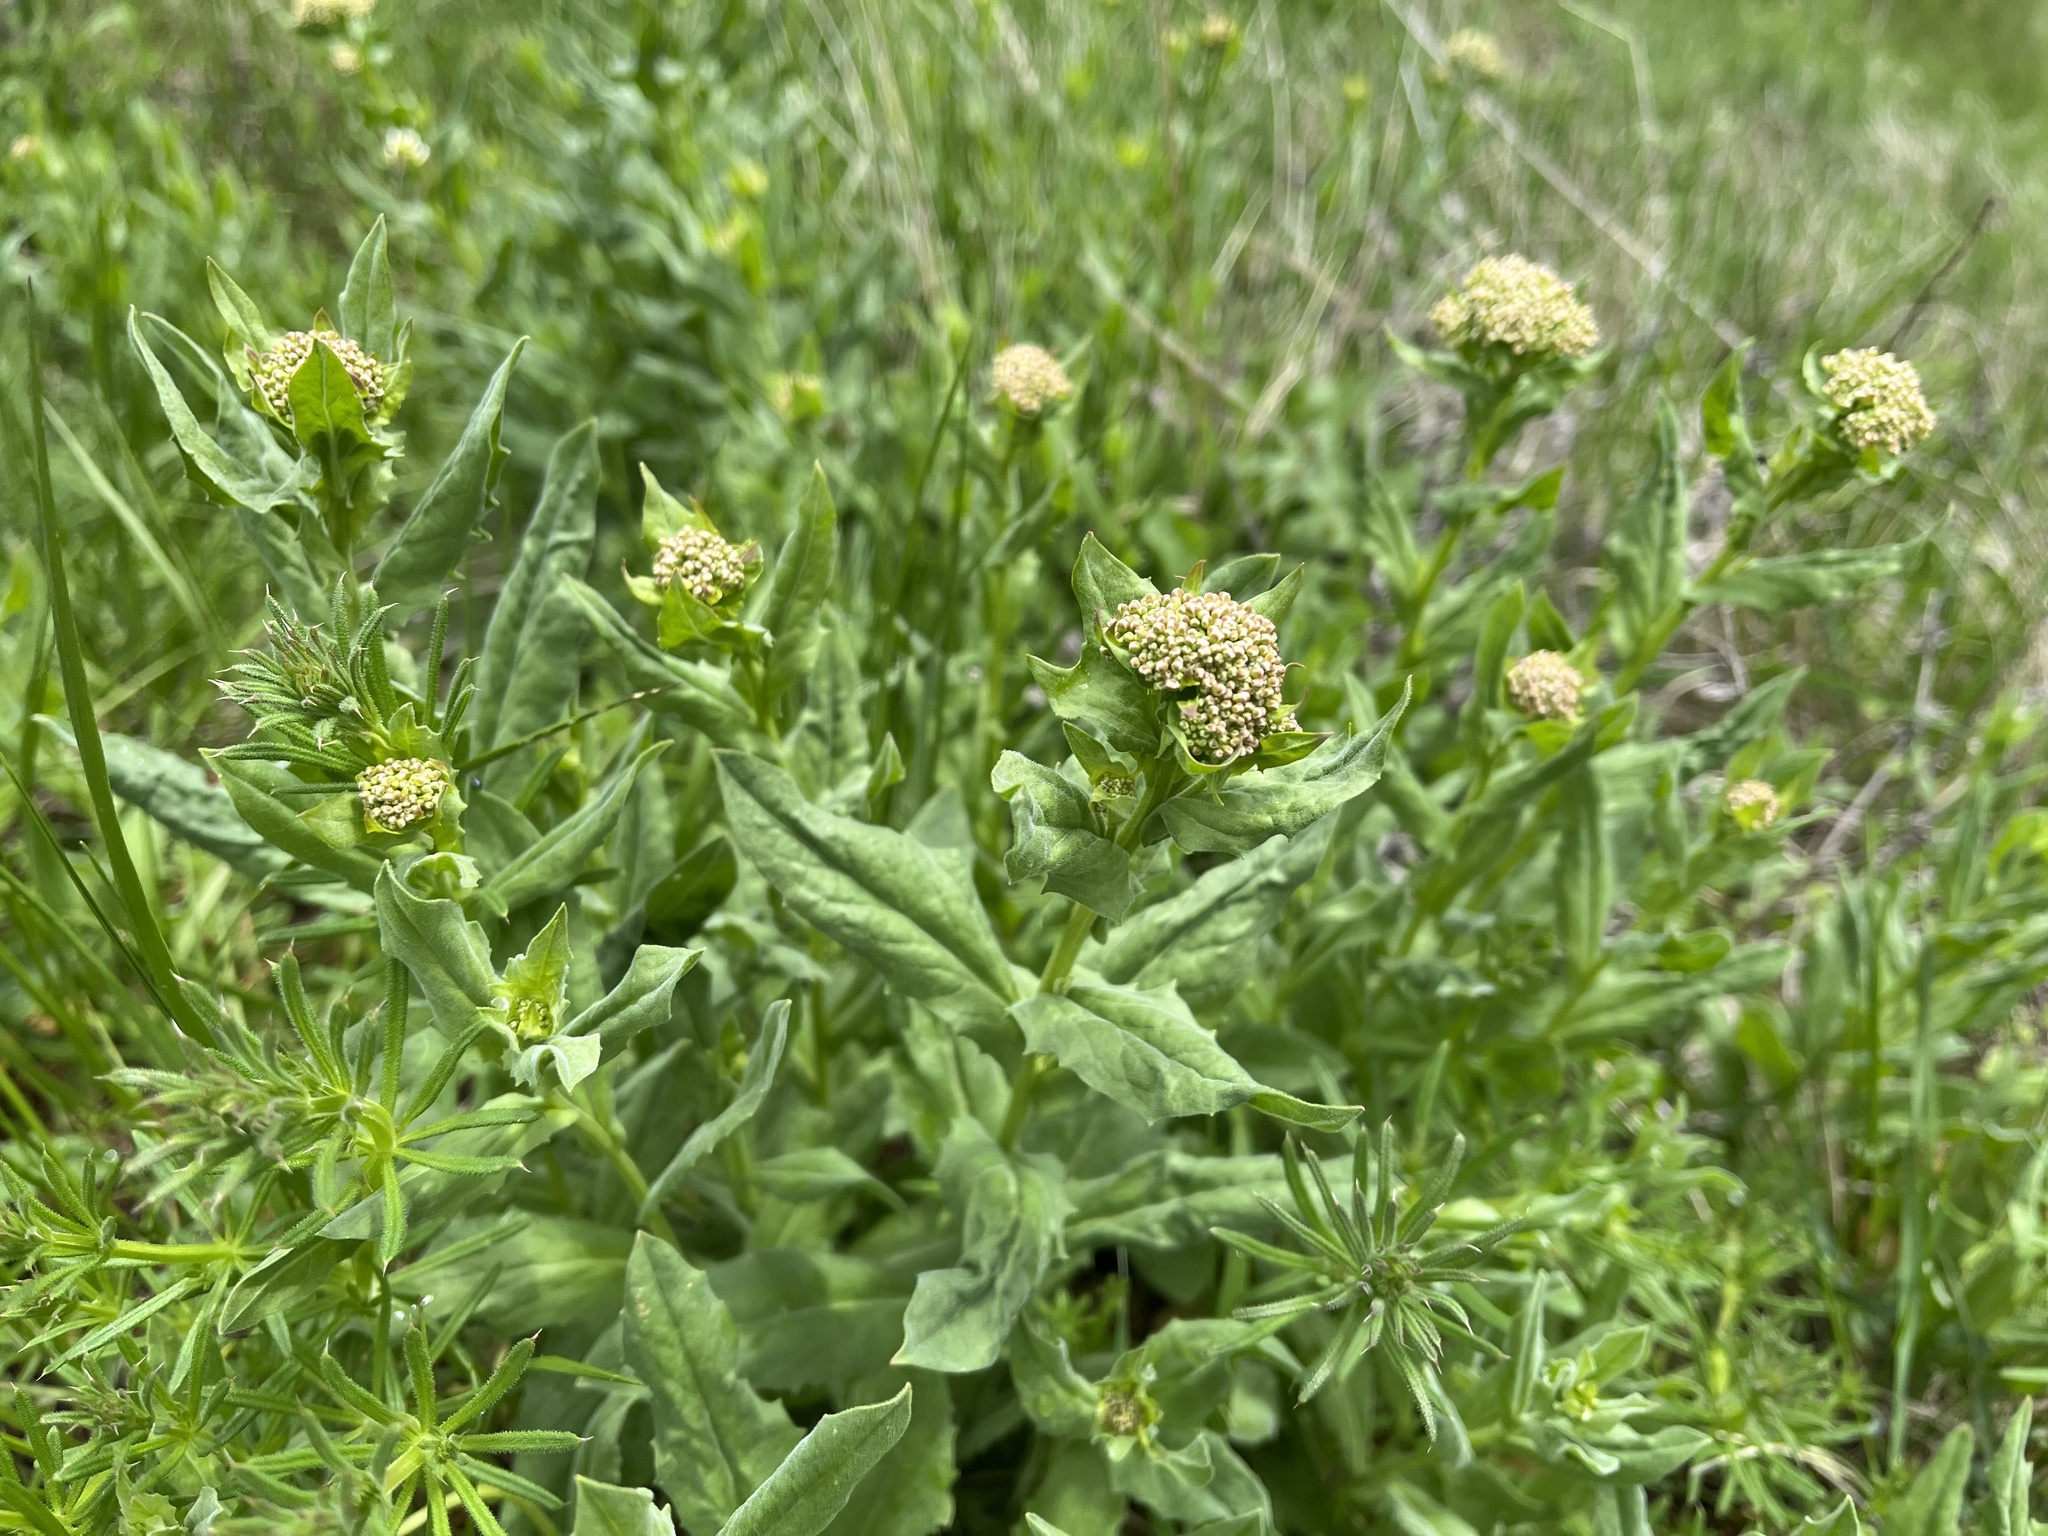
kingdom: Plantae
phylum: Tracheophyta
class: Magnoliopsida
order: Brassicales
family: Brassicaceae
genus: Lepidium
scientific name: Lepidium draba
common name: Hoary cress
